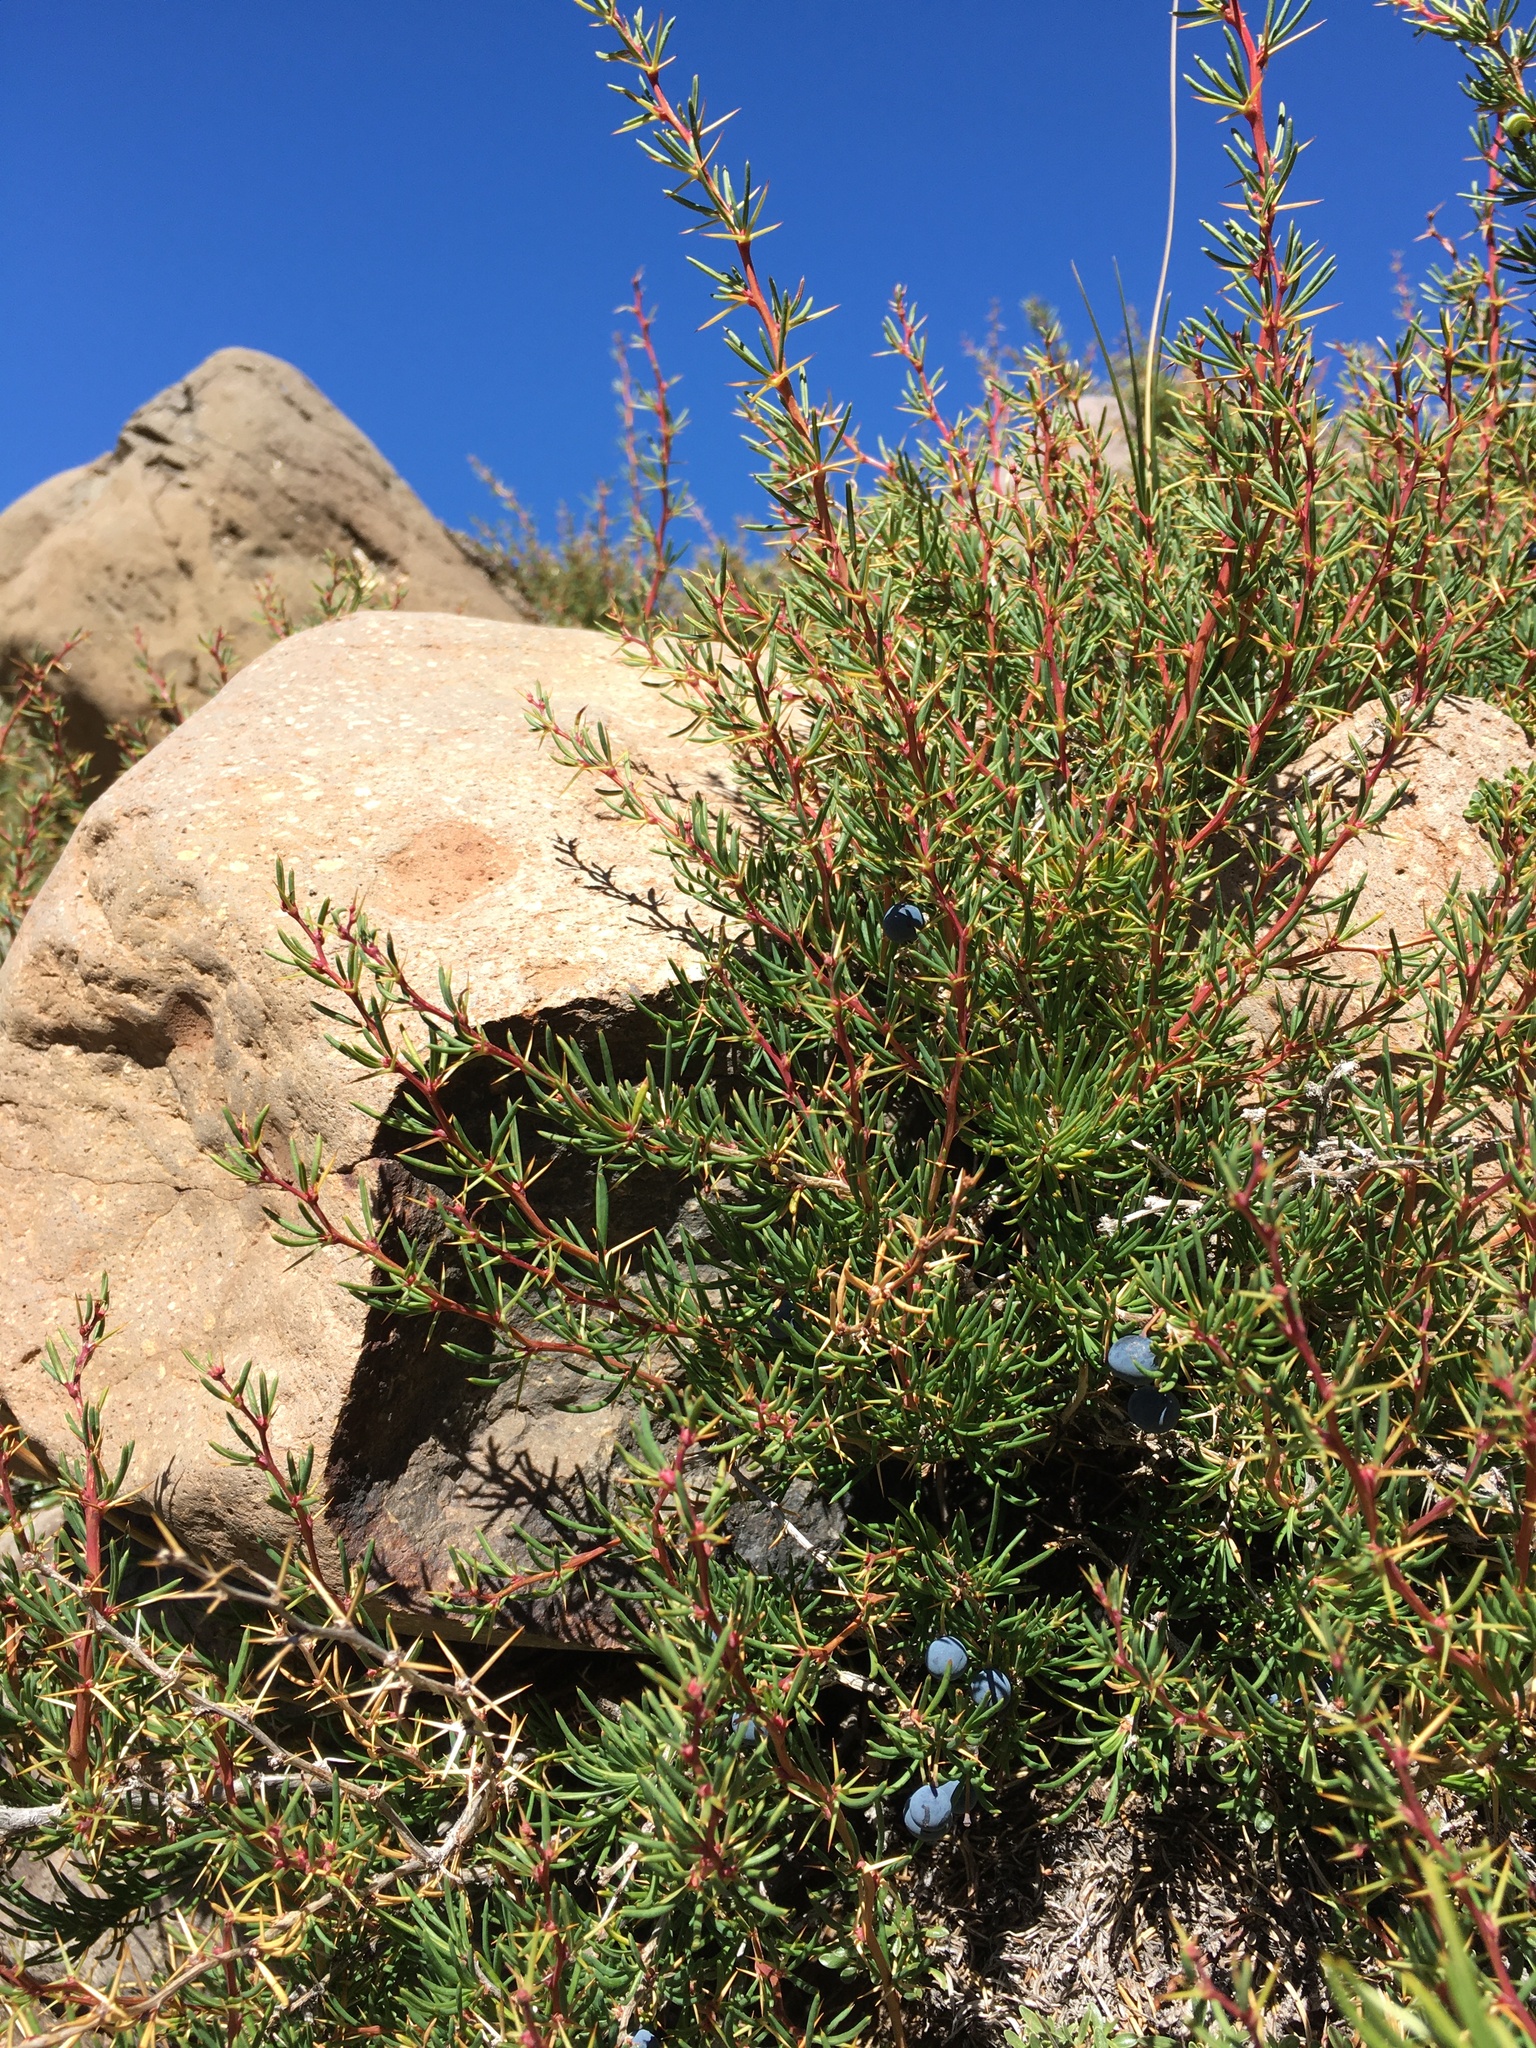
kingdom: Plantae
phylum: Tracheophyta
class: Magnoliopsida
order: Ranunculales
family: Berberidaceae
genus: Berberis
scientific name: Berberis empetrifolia
